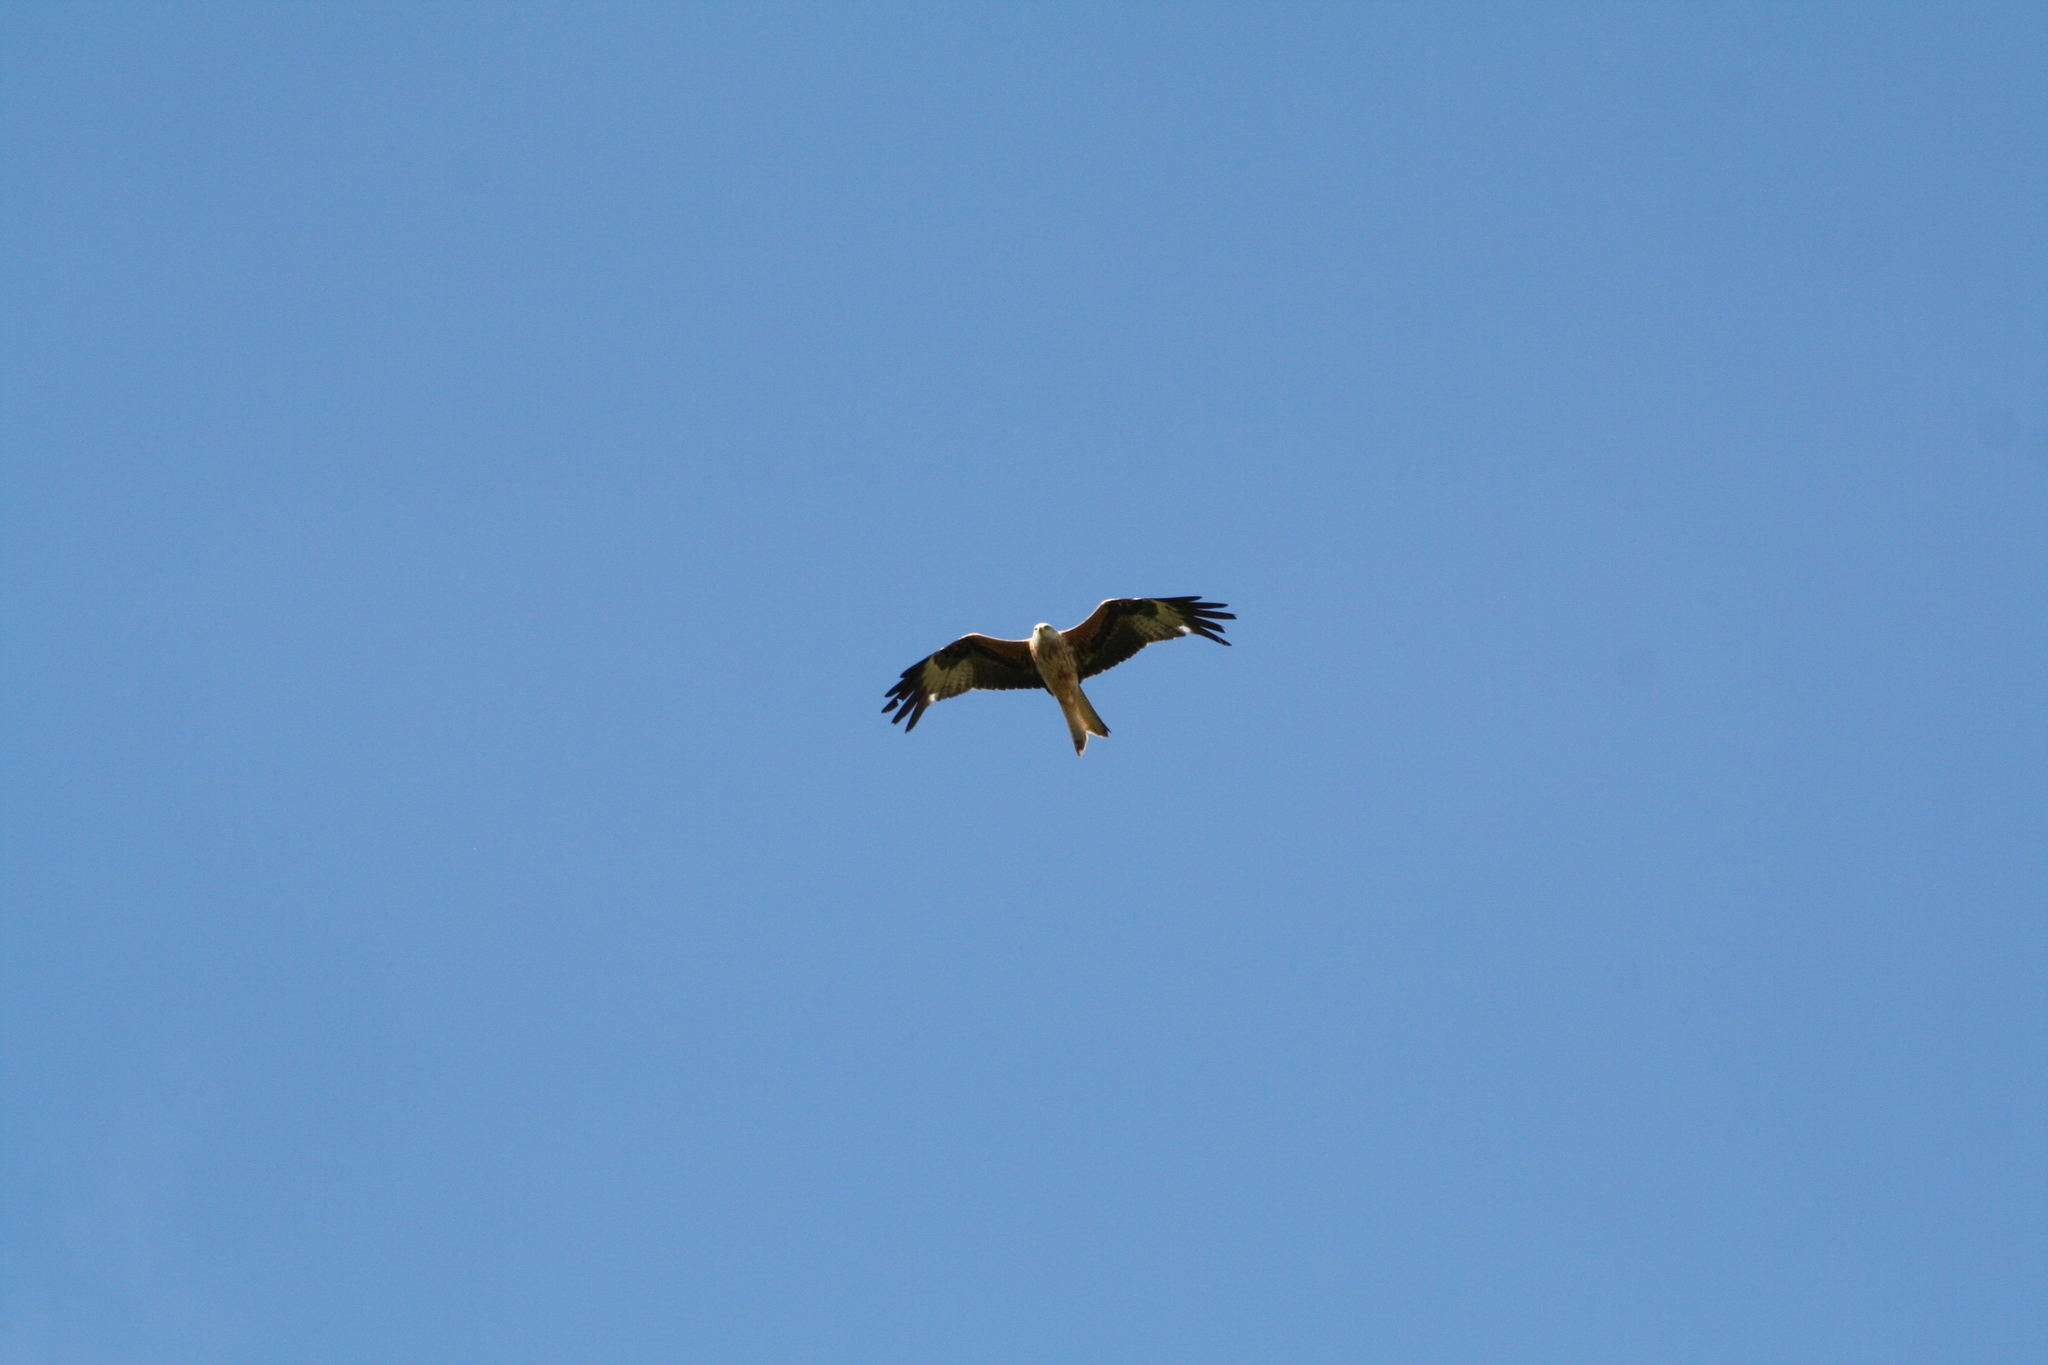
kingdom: Animalia
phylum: Chordata
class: Aves
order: Accipitriformes
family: Accipitridae
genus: Milvus
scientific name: Milvus milvus
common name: Red kite
